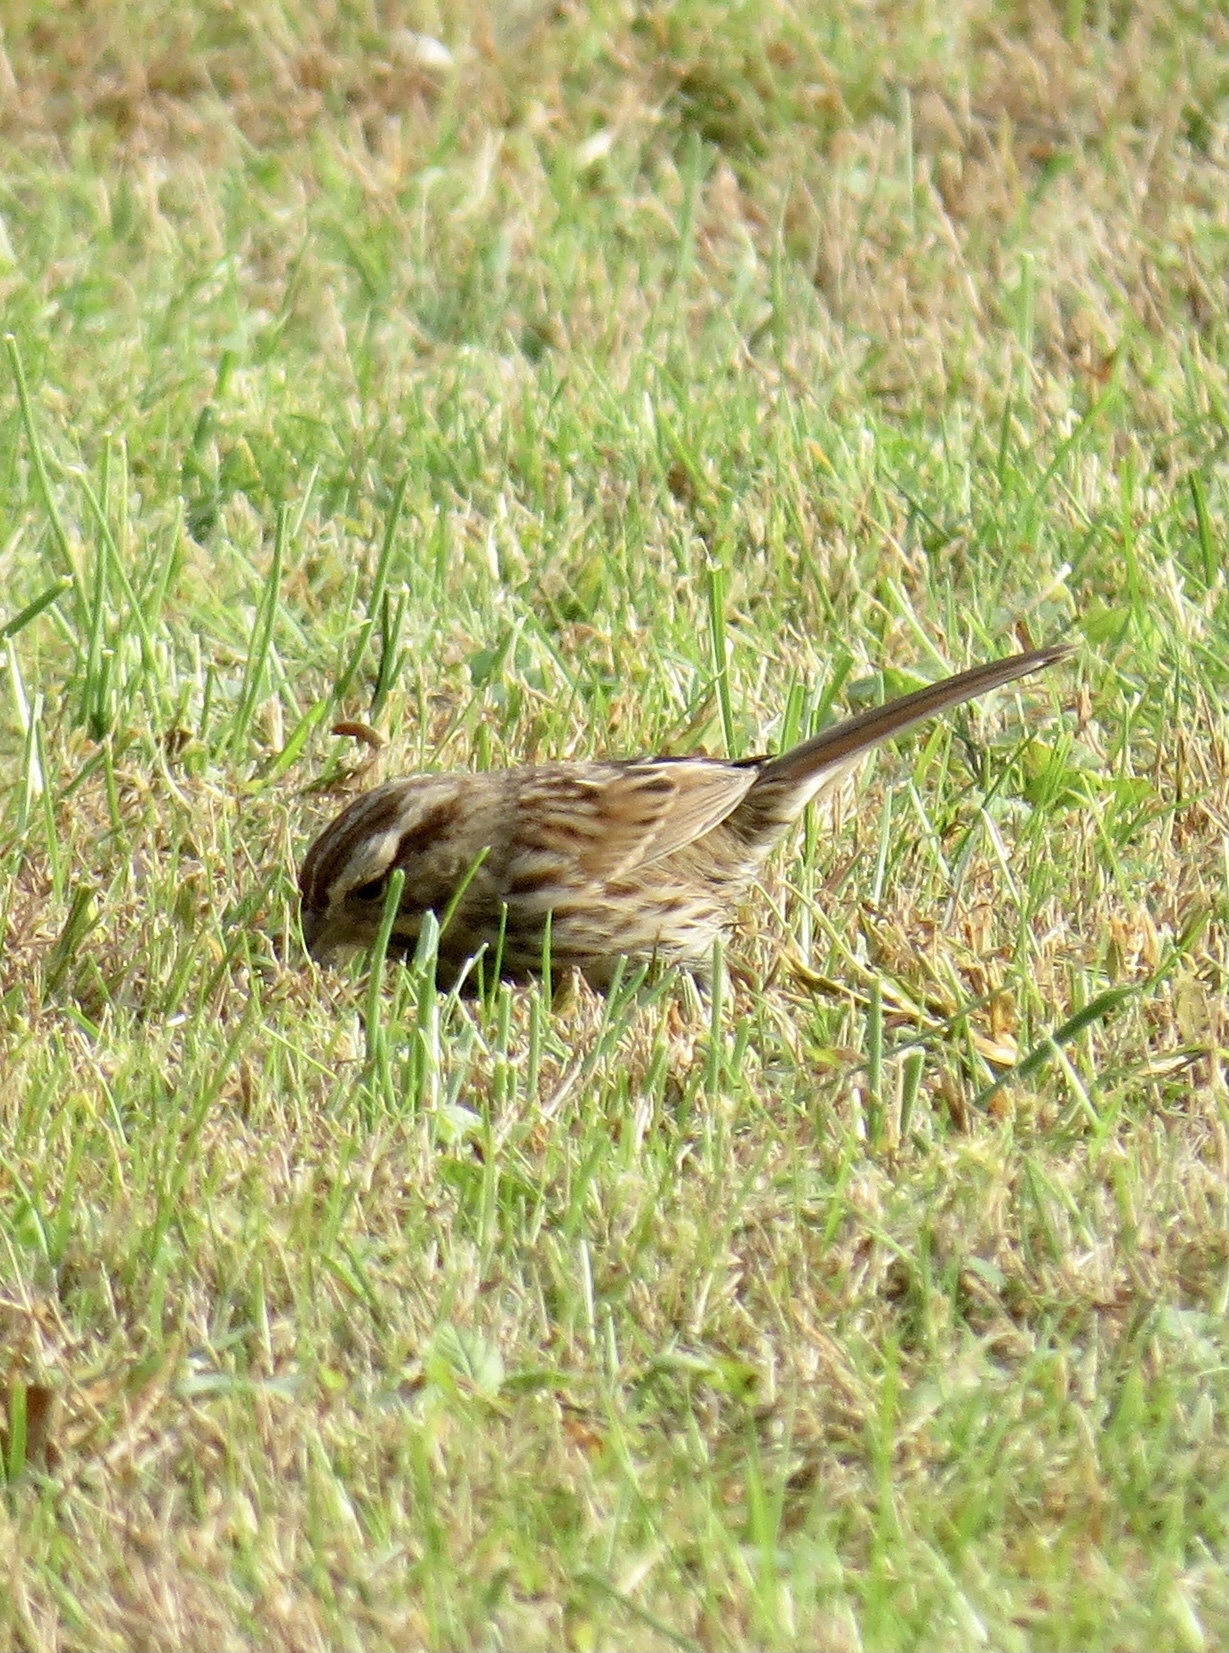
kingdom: Animalia
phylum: Chordata
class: Aves
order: Passeriformes
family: Passerellidae
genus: Melospiza
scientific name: Melospiza melodia
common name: Song sparrow
